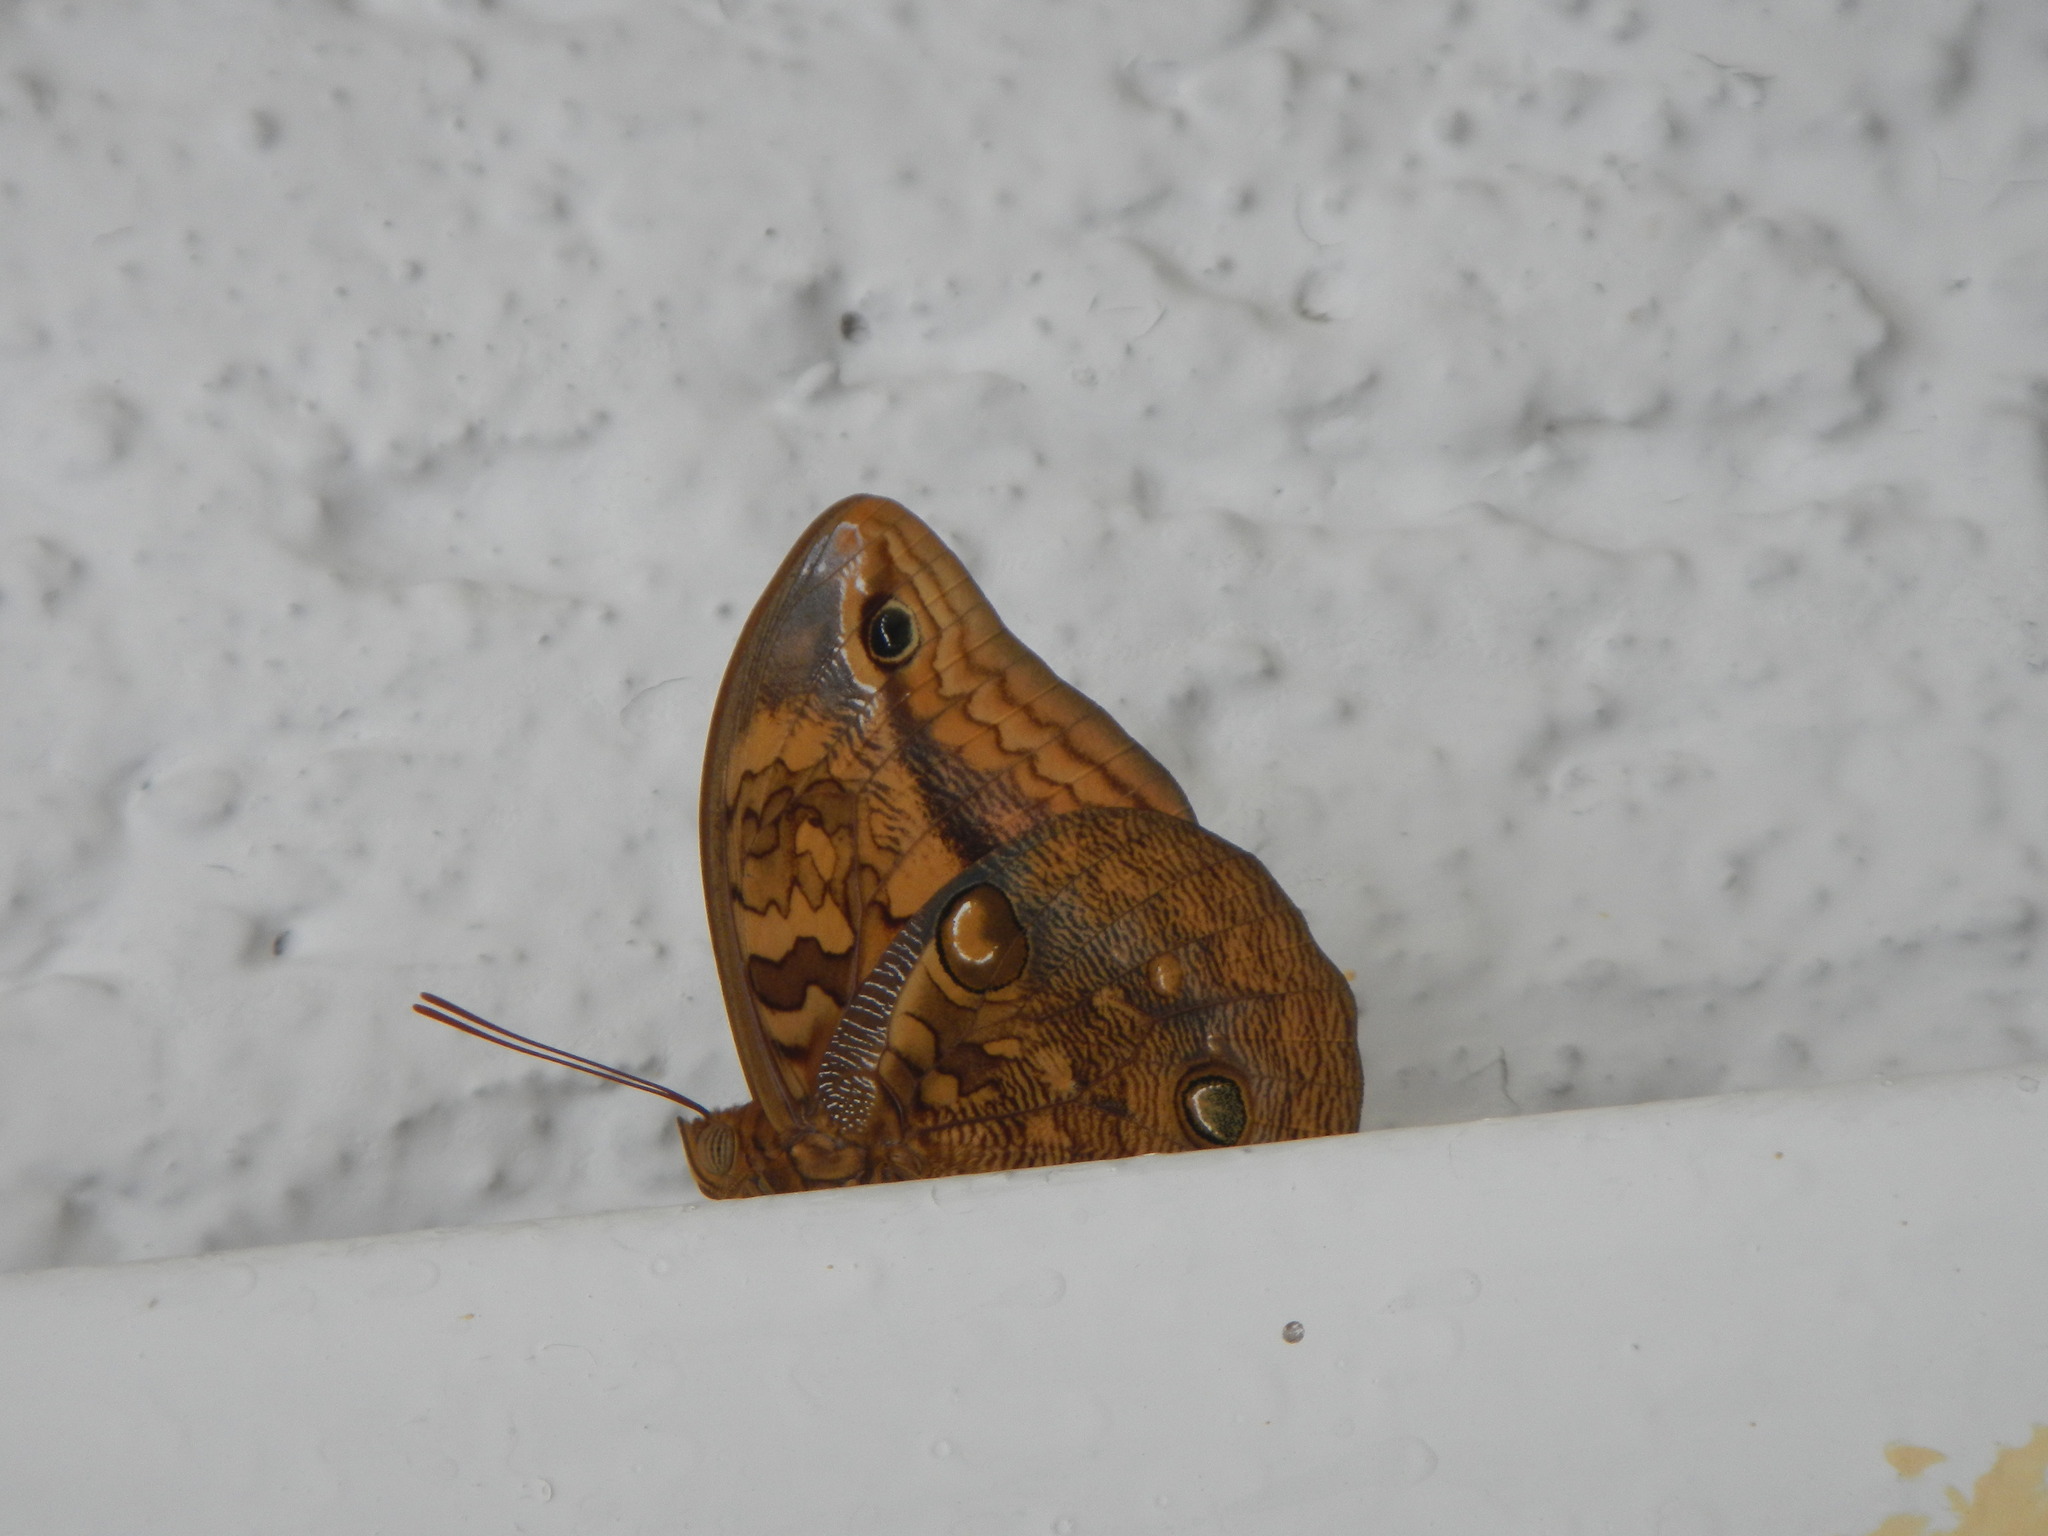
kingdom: Animalia
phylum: Arthropoda
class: Insecta
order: Lepidoptera
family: Nymphalidae
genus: Opsiphanes
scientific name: Opsiphanes boisduvalii
